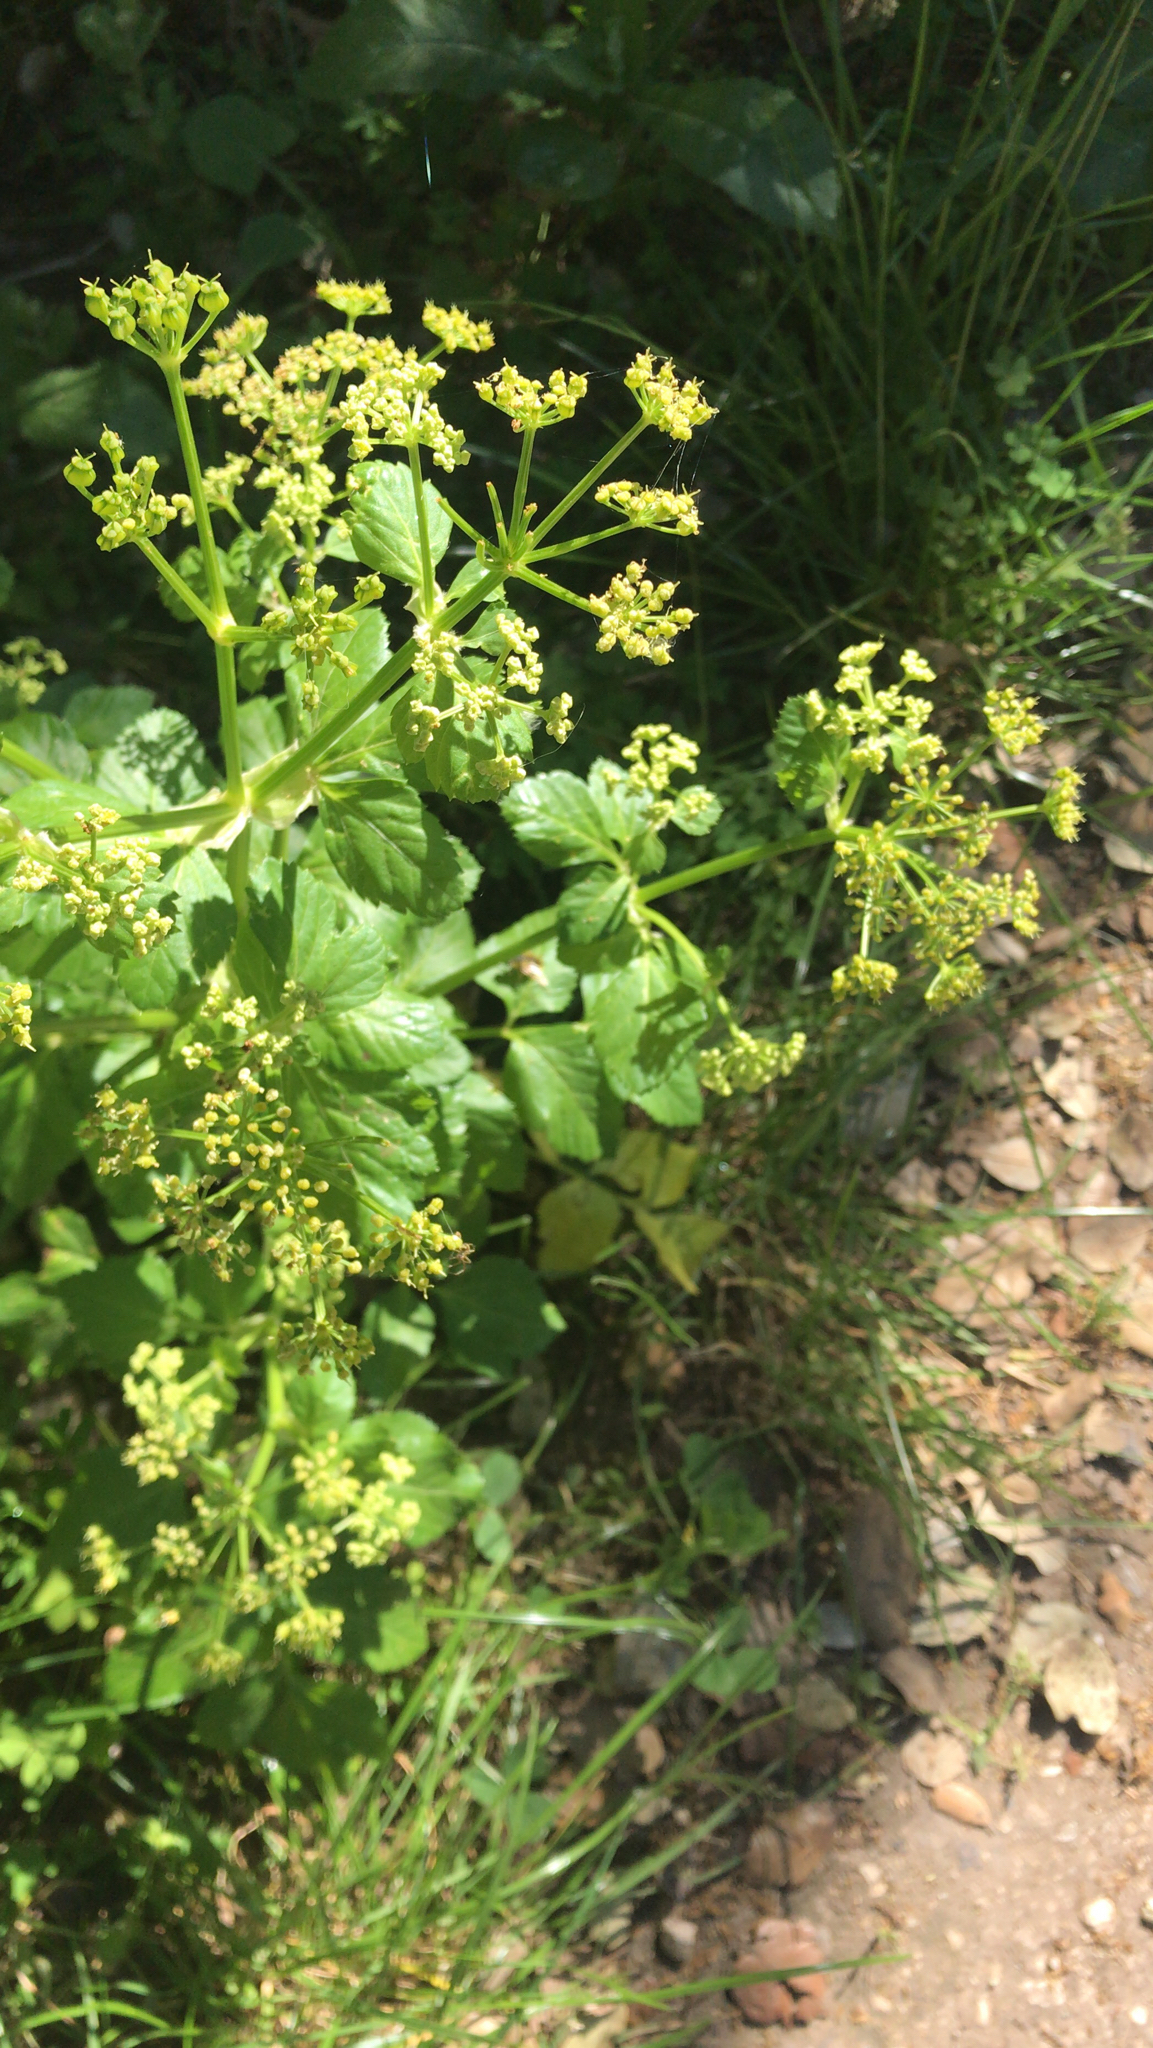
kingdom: Plantae
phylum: Tracheophyta
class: Magnoliopsida
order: Apiales
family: Apiaceae
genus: Smyrnium
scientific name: Smyrnium olusatrum
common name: Alexanders
